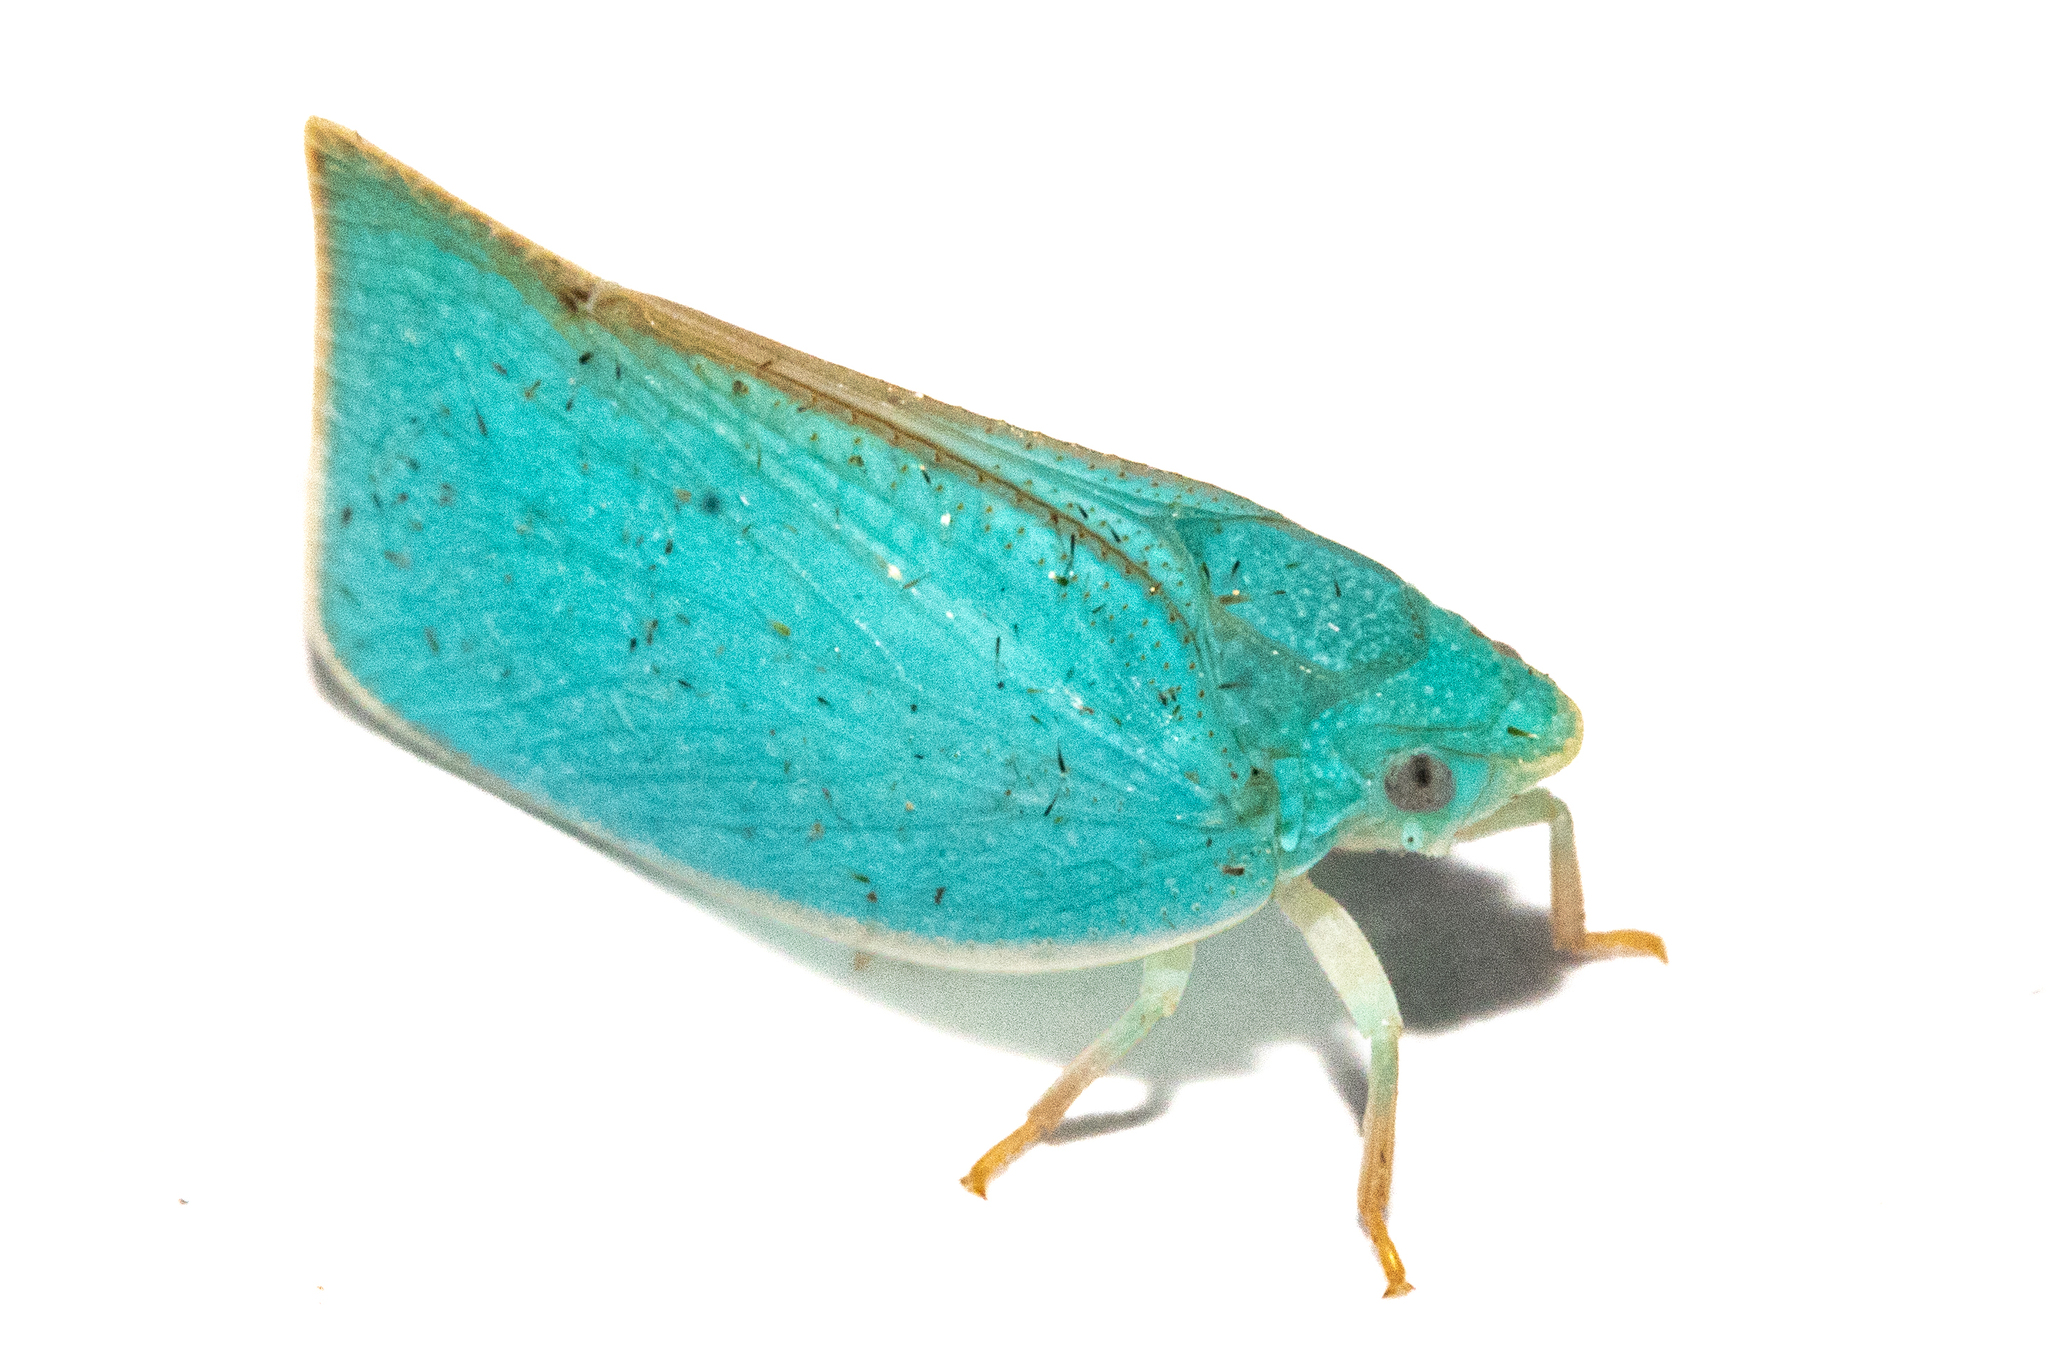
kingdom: Animalia
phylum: Arthropoda
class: Insecta
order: Hemiptera
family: Flatidae
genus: Siphanta
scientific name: Siphanta acuta
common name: Torpedo bug
